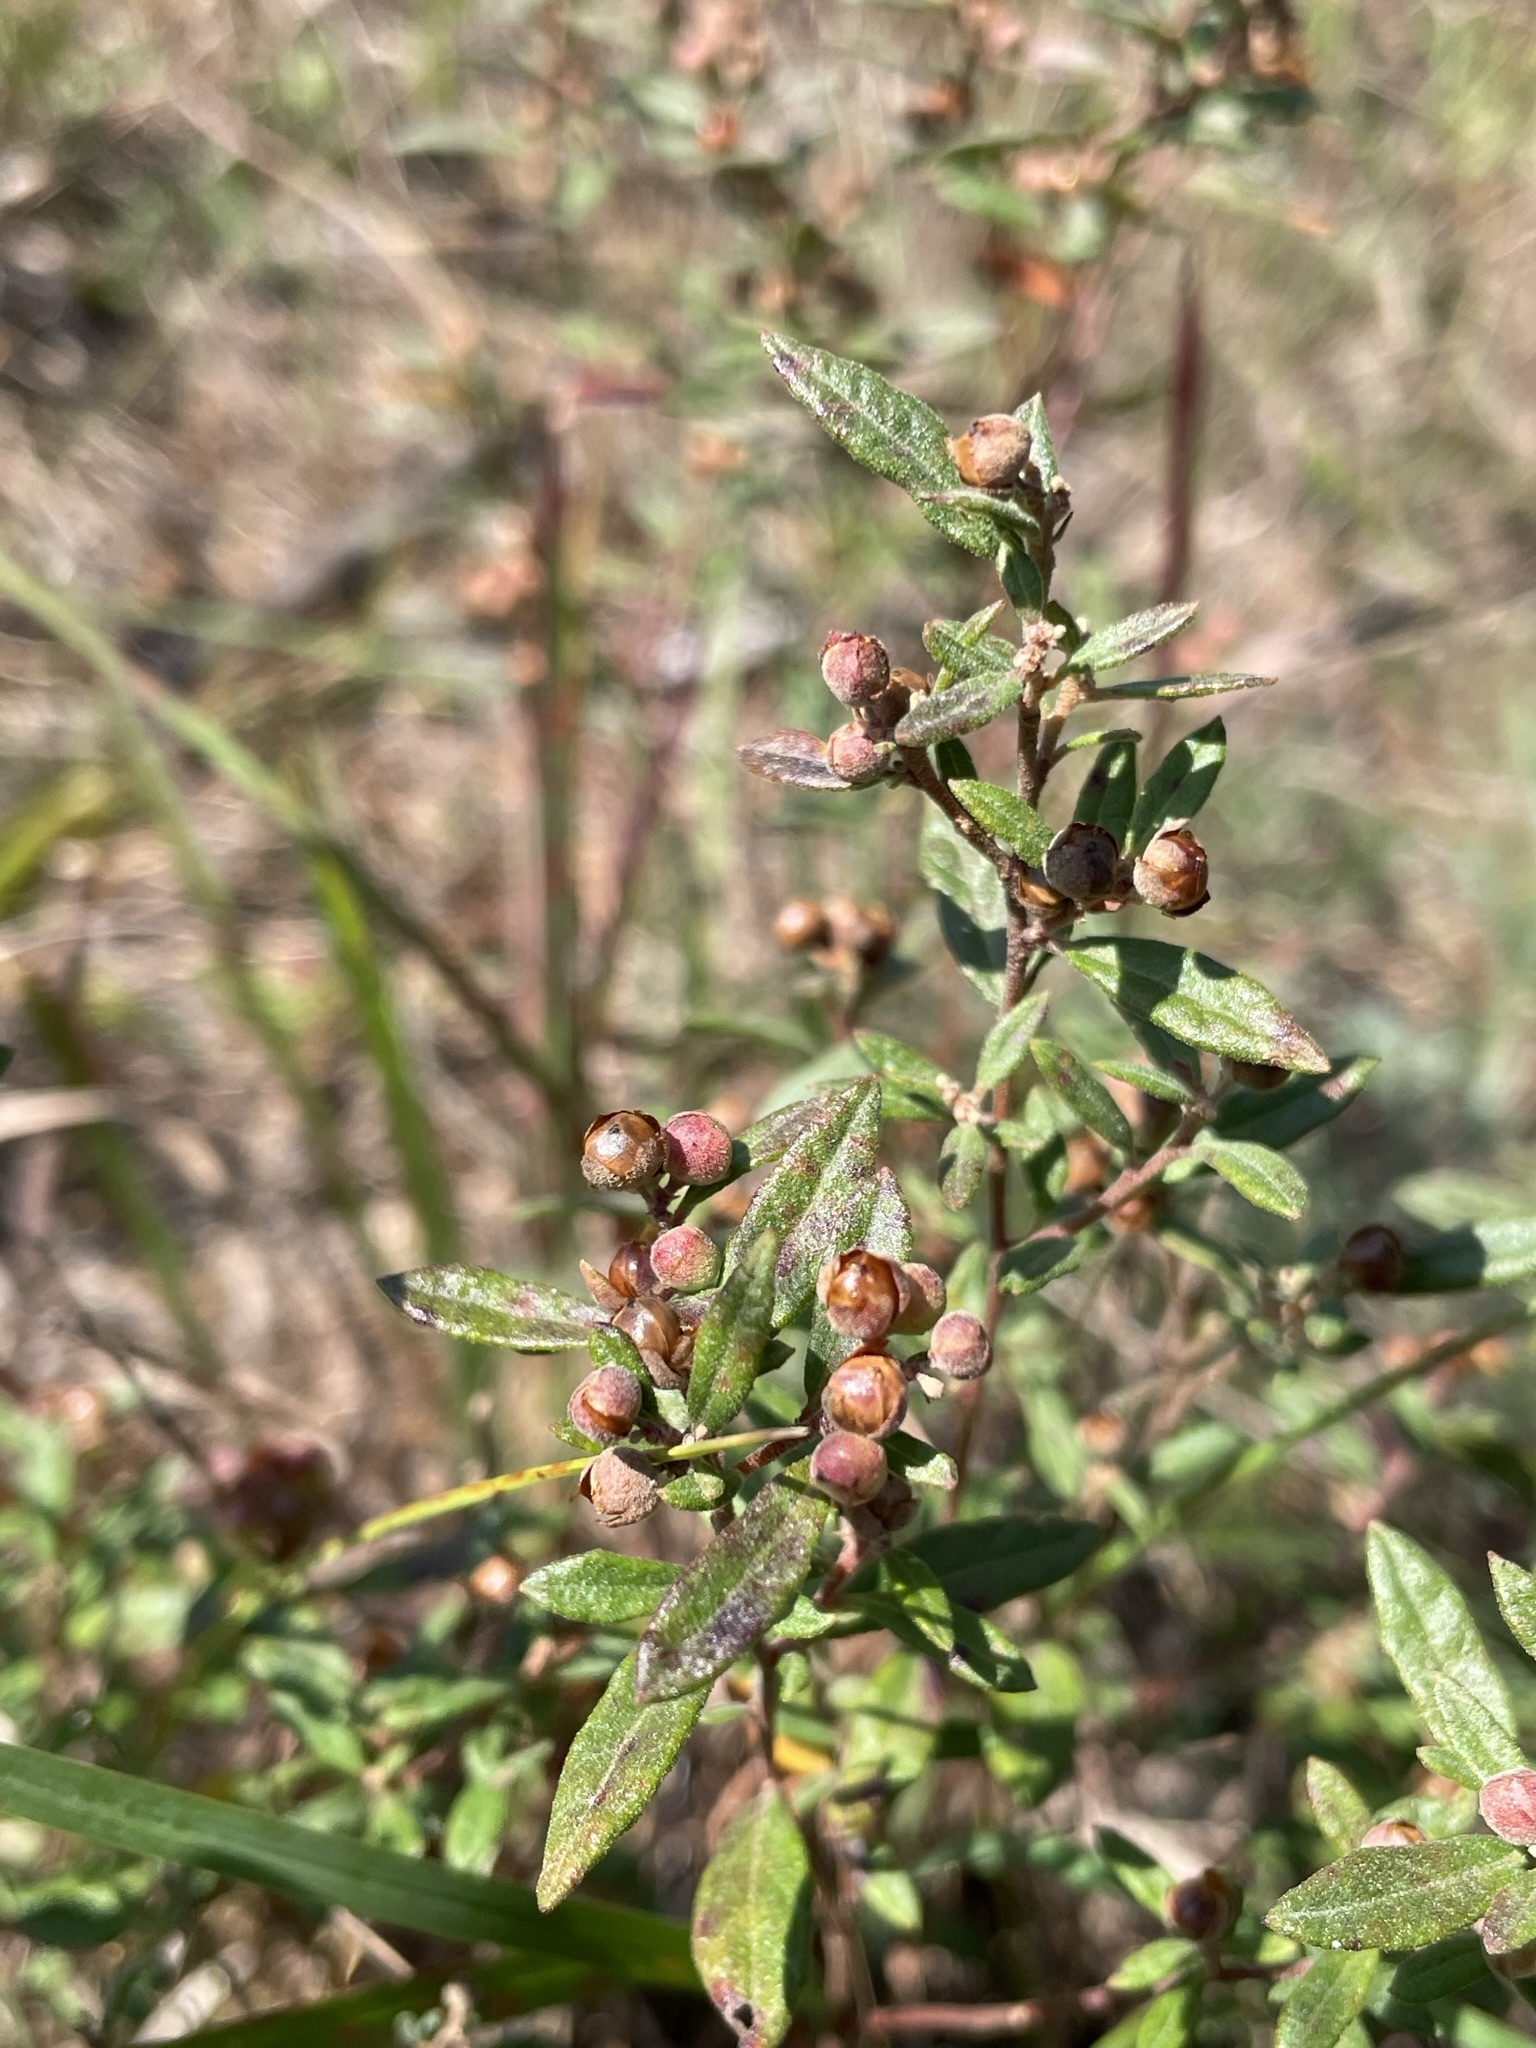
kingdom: Plantae
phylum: Tracheophyta
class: Magnoliopsida
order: Malvales
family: Cistaceae
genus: Crocanthemum
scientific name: Crocanthemum bicknellii
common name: Hoary frostweed
